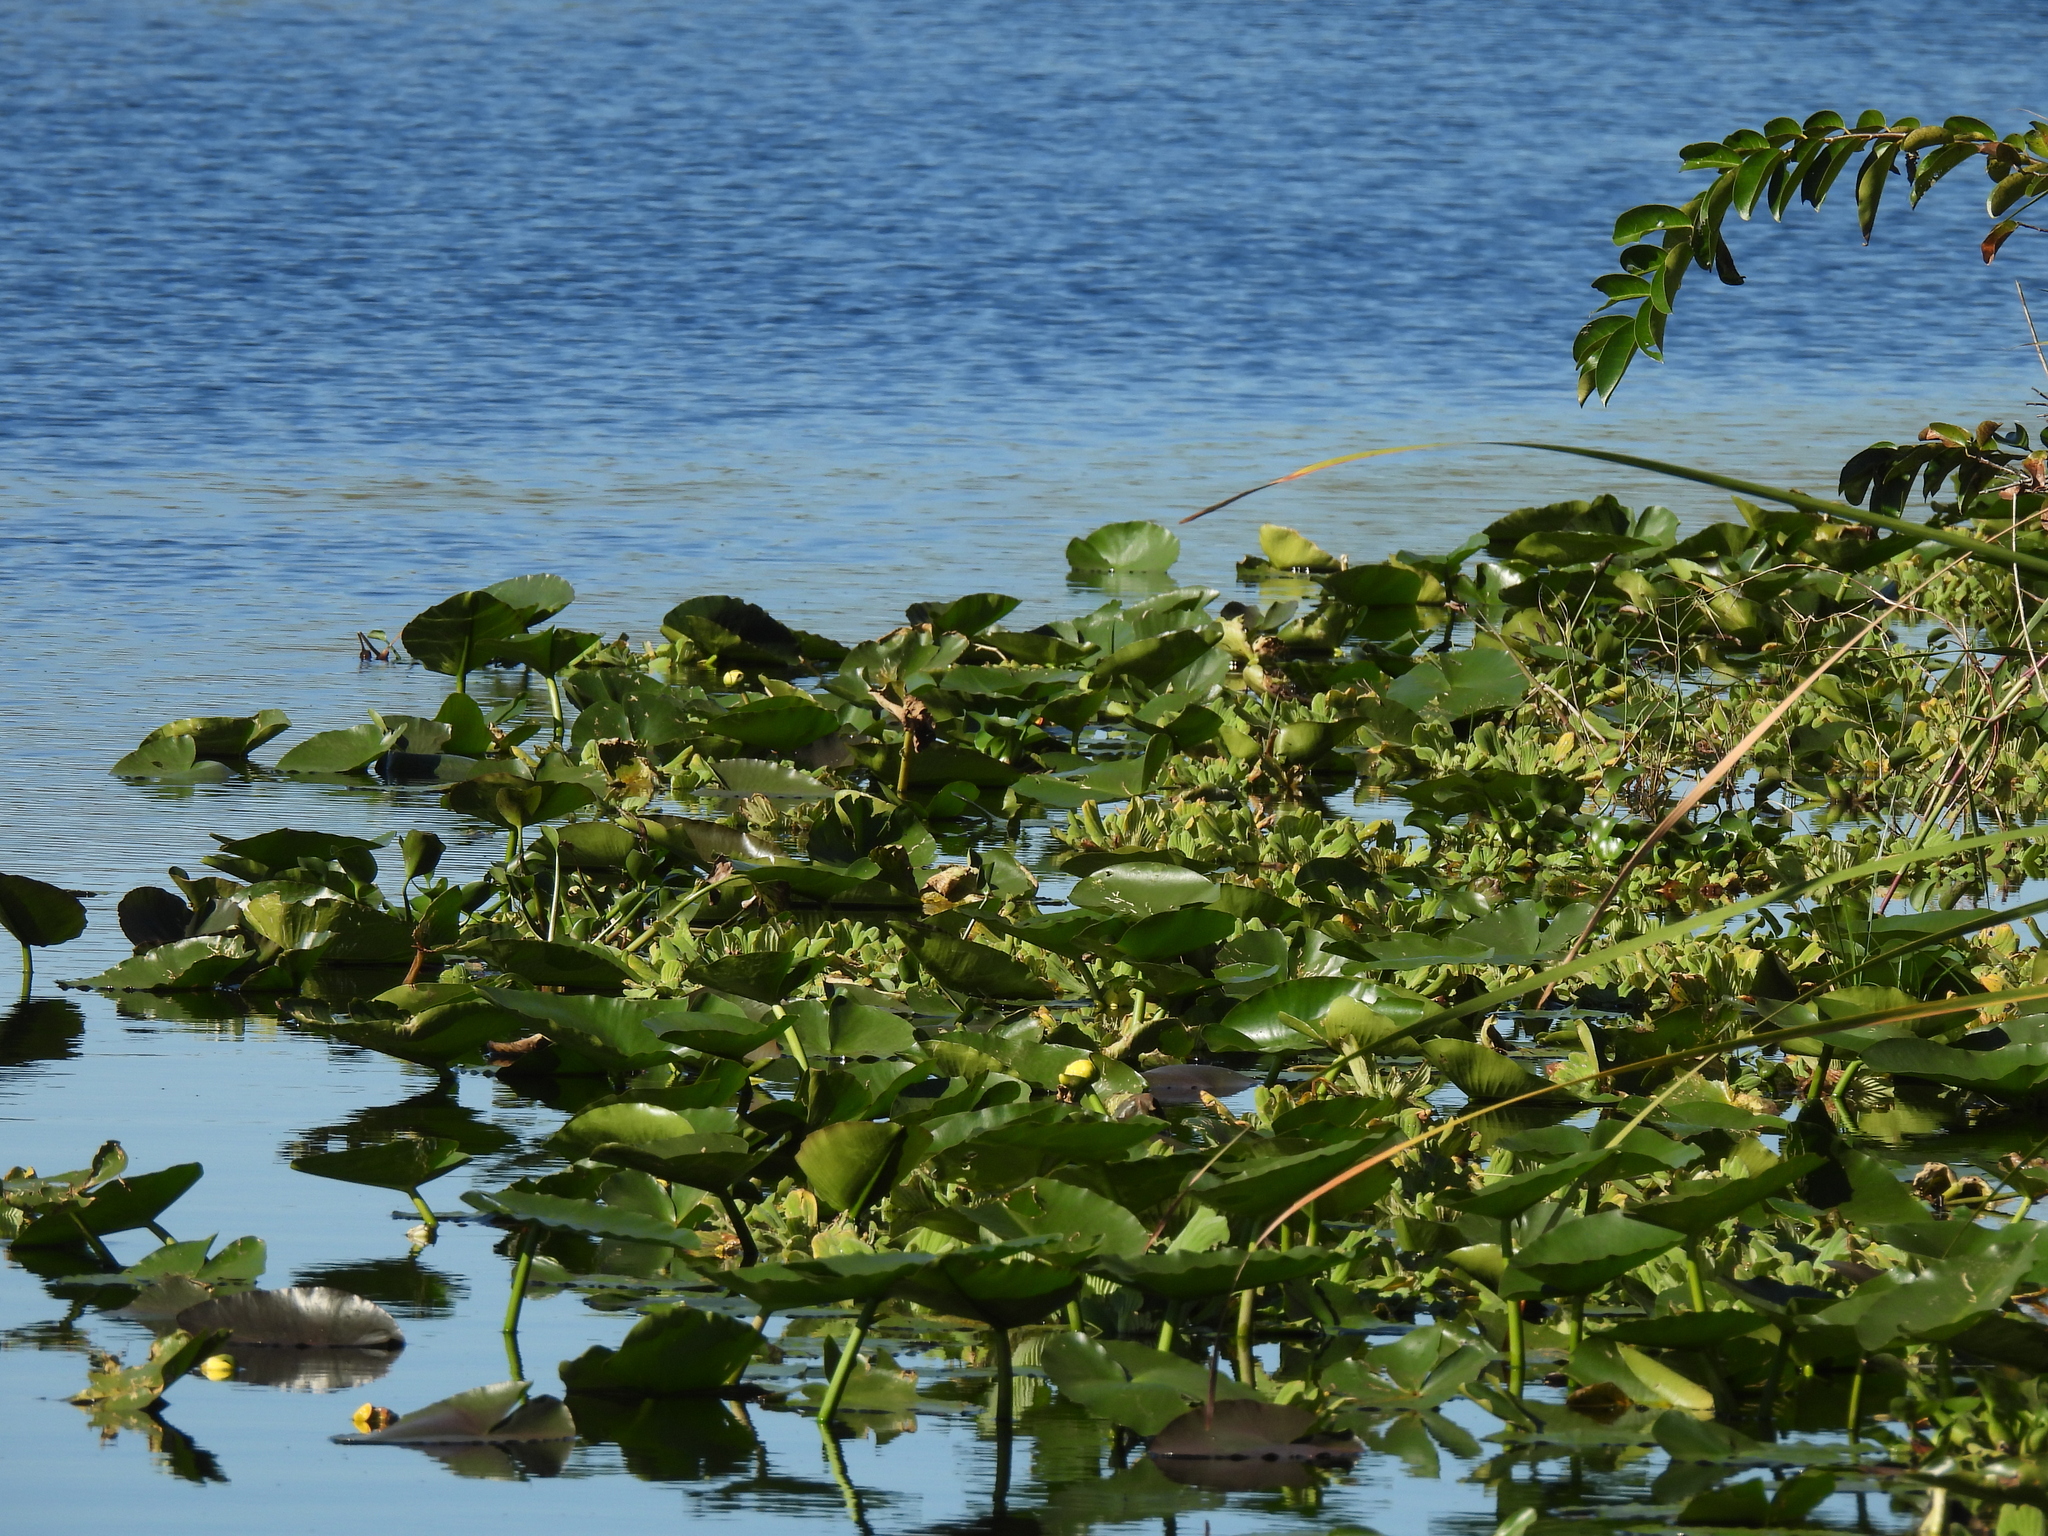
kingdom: Plantae
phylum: Tracheophyta
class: Magnoliopsida
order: Nymphaeales
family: Nymphaeaceae
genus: Nuphar
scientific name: Nuphar advena
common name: Spatter-dock
